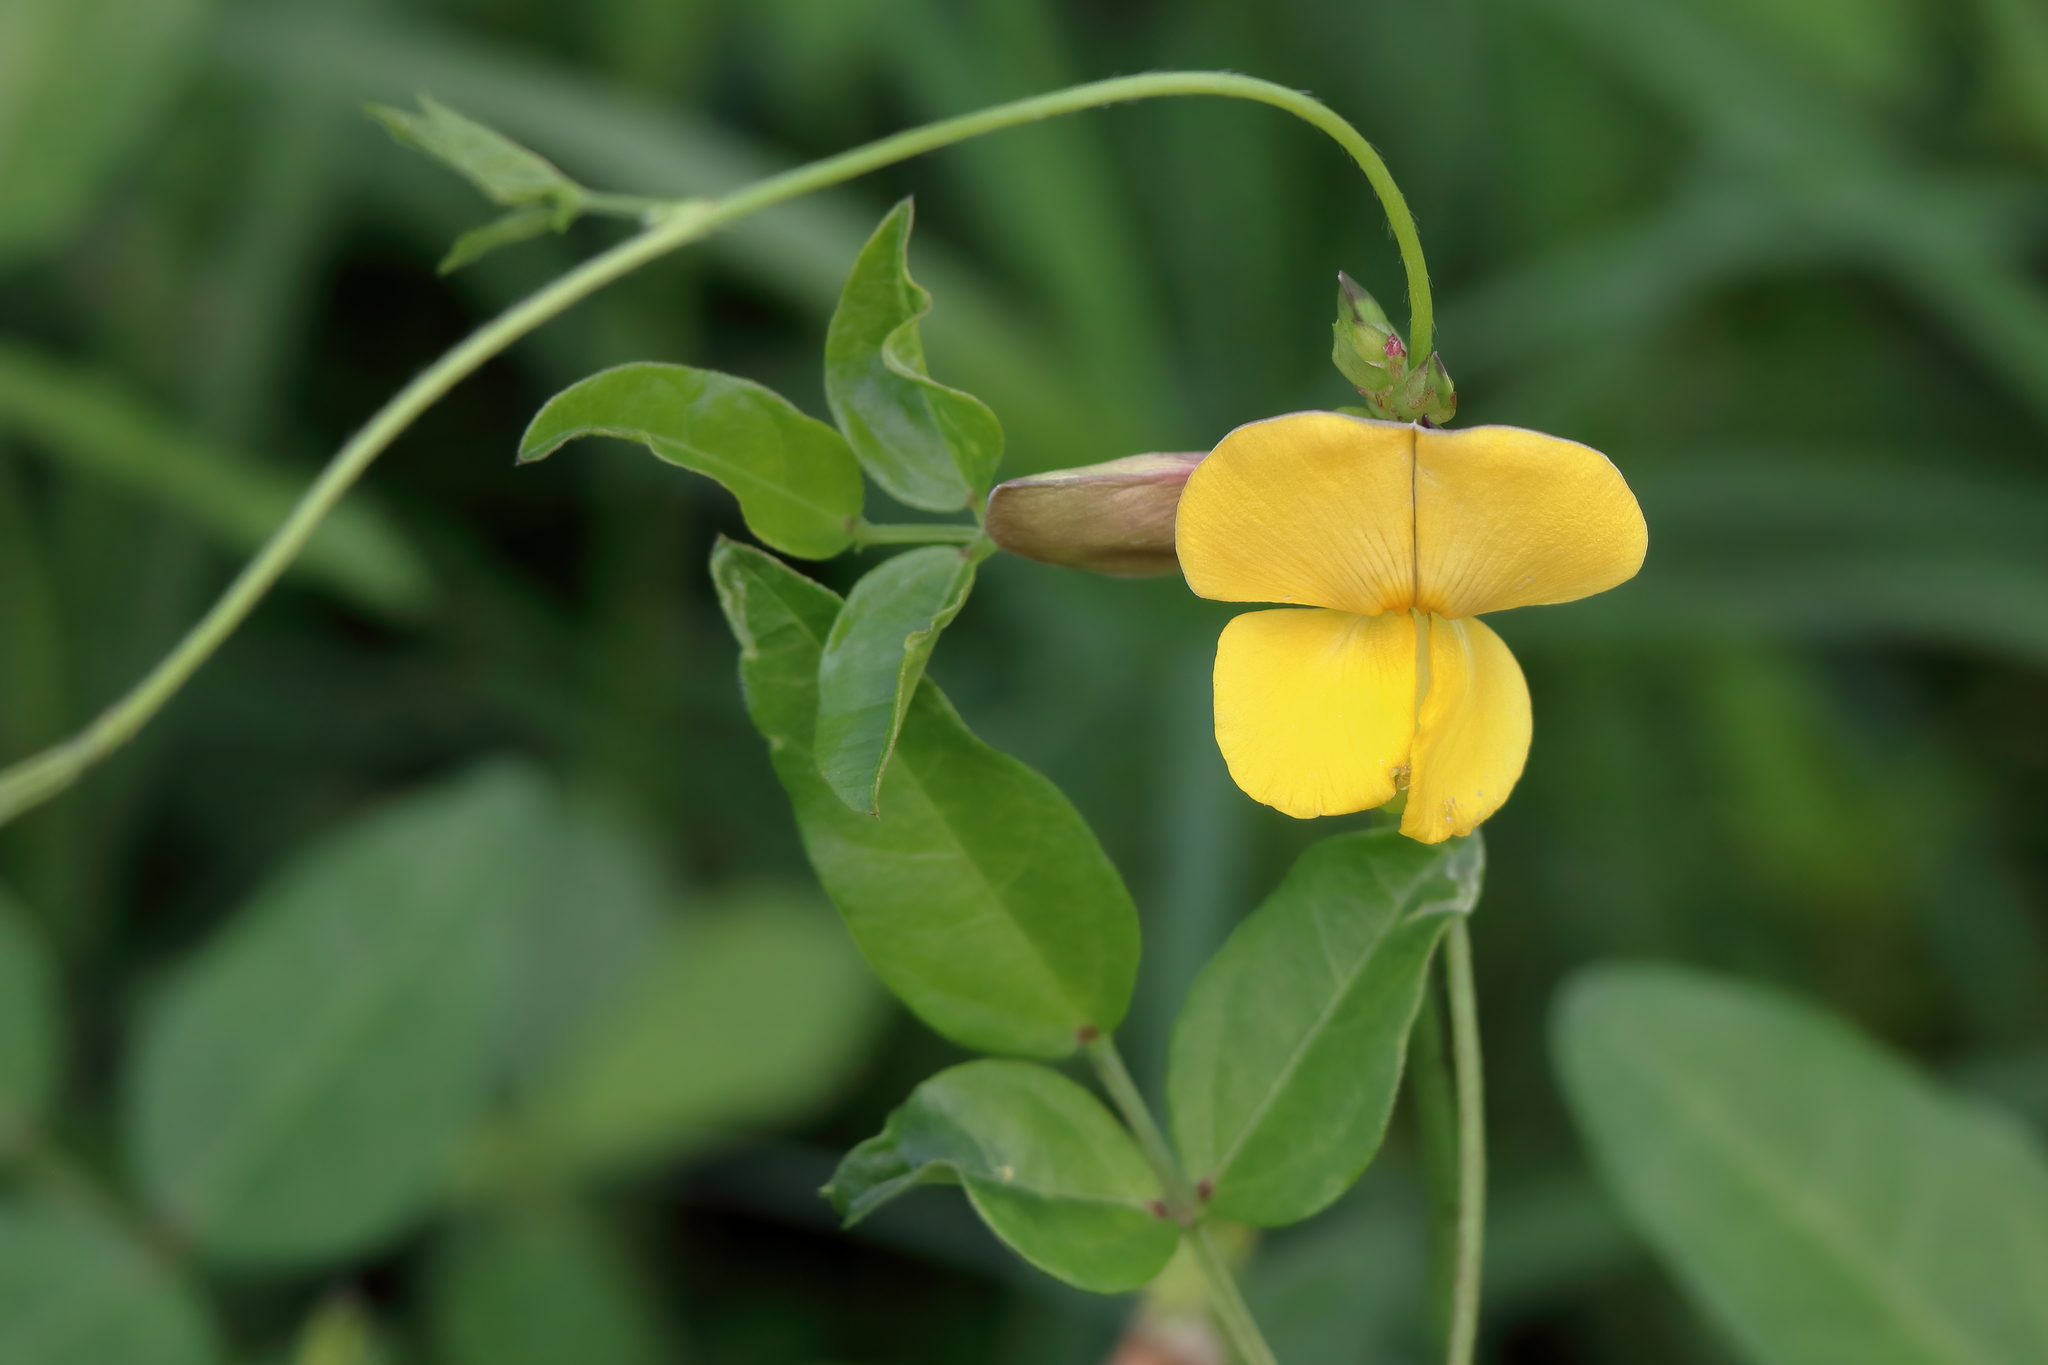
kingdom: Plantae
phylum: Tracheophyta
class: Magnoliopsida
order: Fabales
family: Fabaceae
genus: Vigna
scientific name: Vigna luteola
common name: Hairypod cowpea
